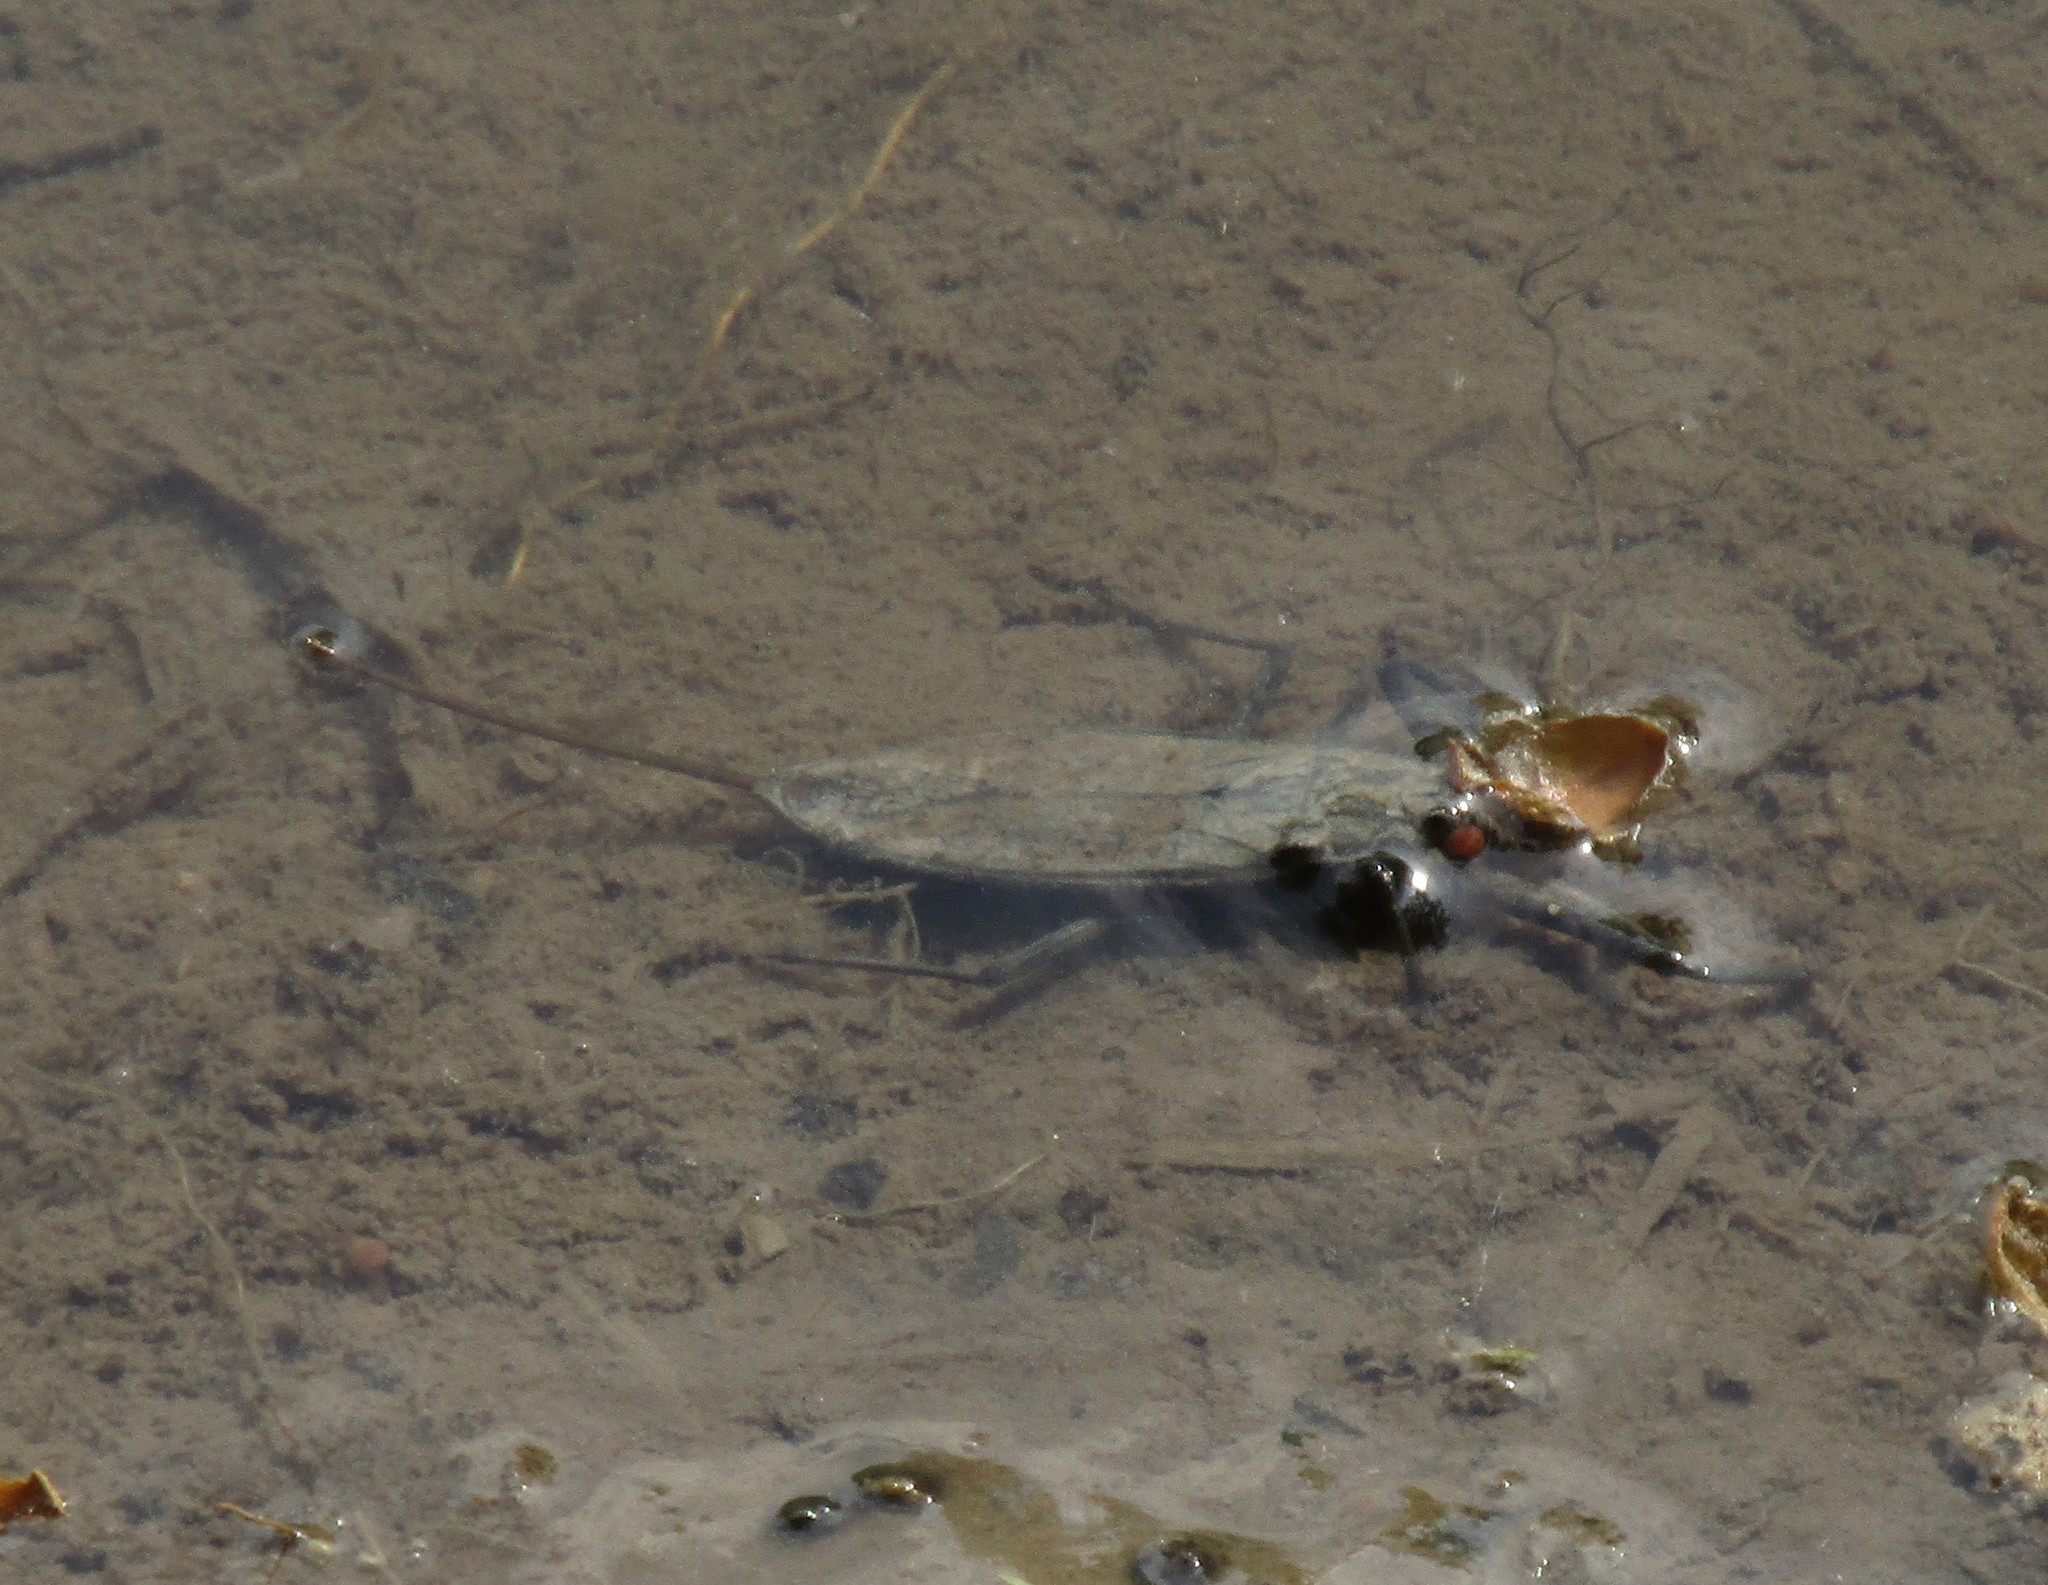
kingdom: Animalia
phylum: Arthropoda
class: Insecta
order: Hemiptera
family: Nepidae
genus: Nepa
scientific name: Nepa cinerea
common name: Water scorpion
